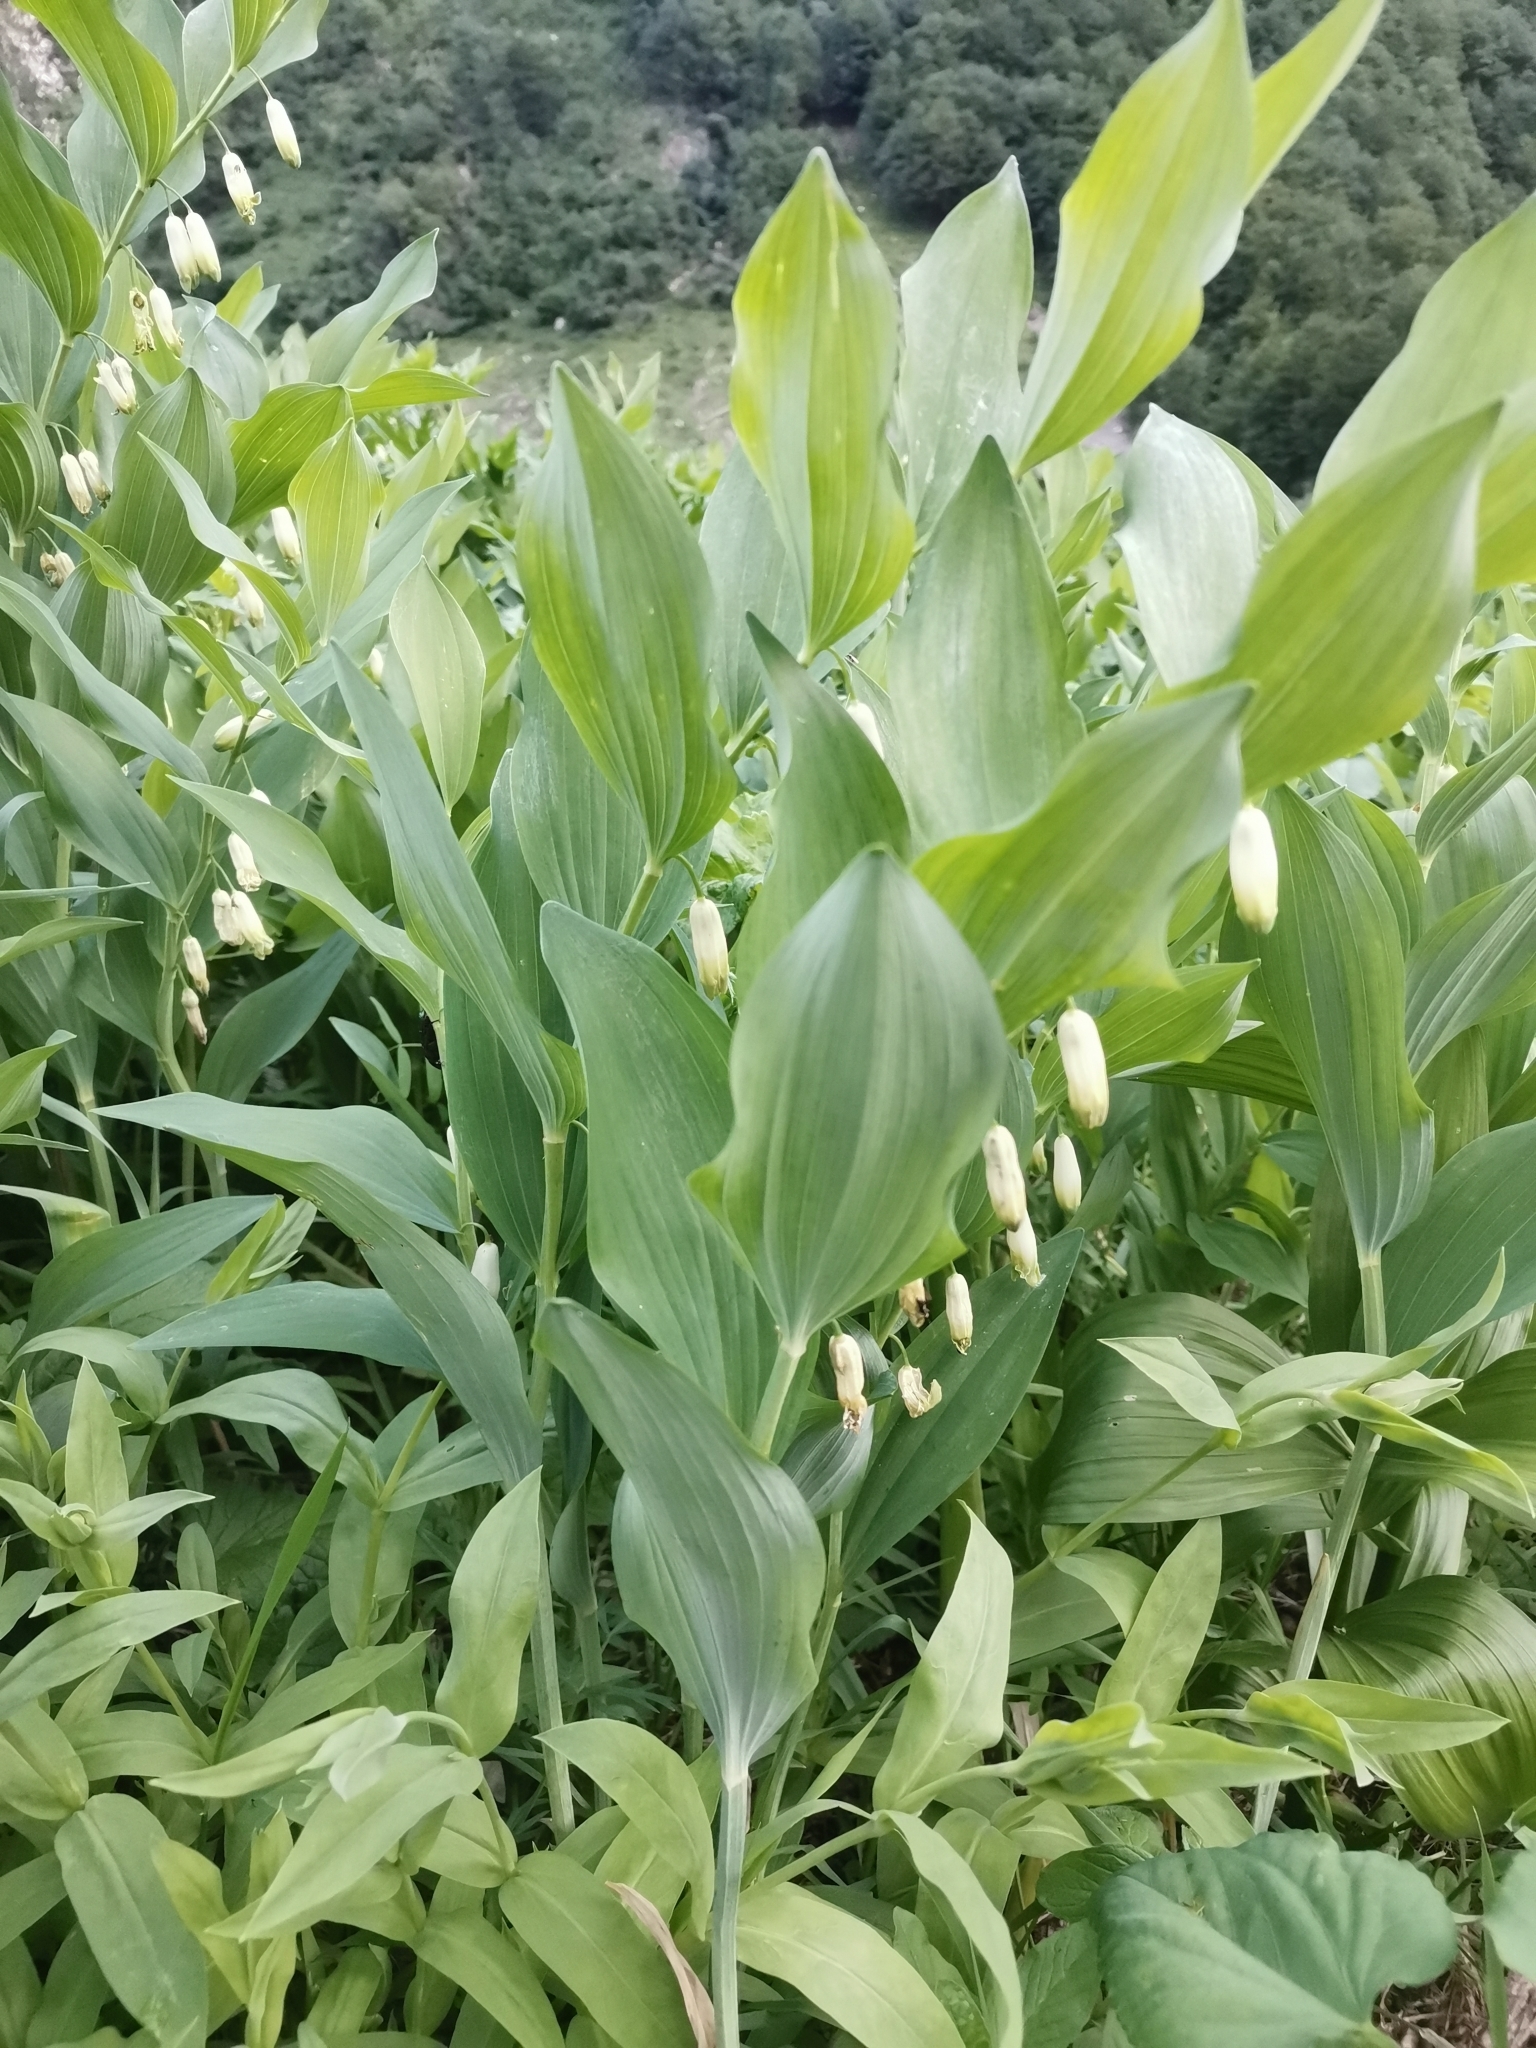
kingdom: Plantae
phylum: Tracheophyta
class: Liliopsida
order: Asparagales
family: Asparagaceae
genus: Polygonatum
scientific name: Polygonatum odoratum
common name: Angular solomon's-seal
